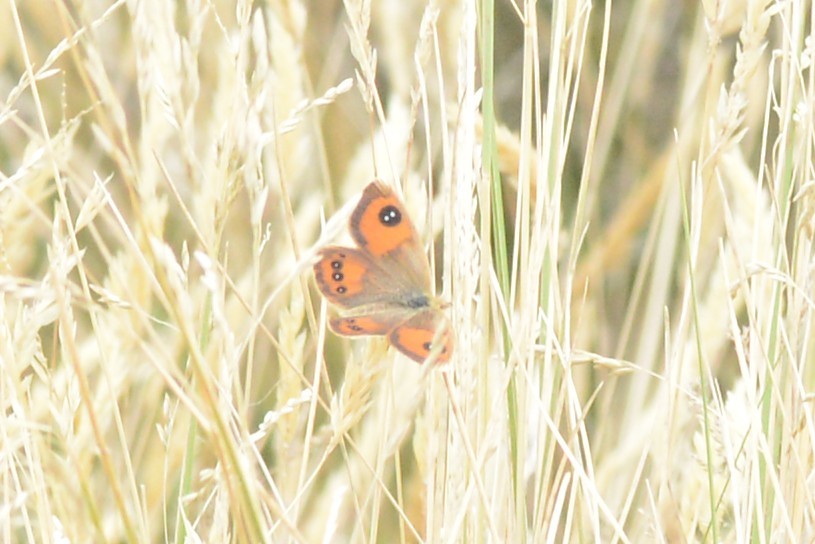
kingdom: Animalia
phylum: Arthropoda
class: Insecta
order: Lepidoptera
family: Nymphalidae
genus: Argyrophenga
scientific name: Argyrophenga antipodum
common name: Common tussock butterfly
